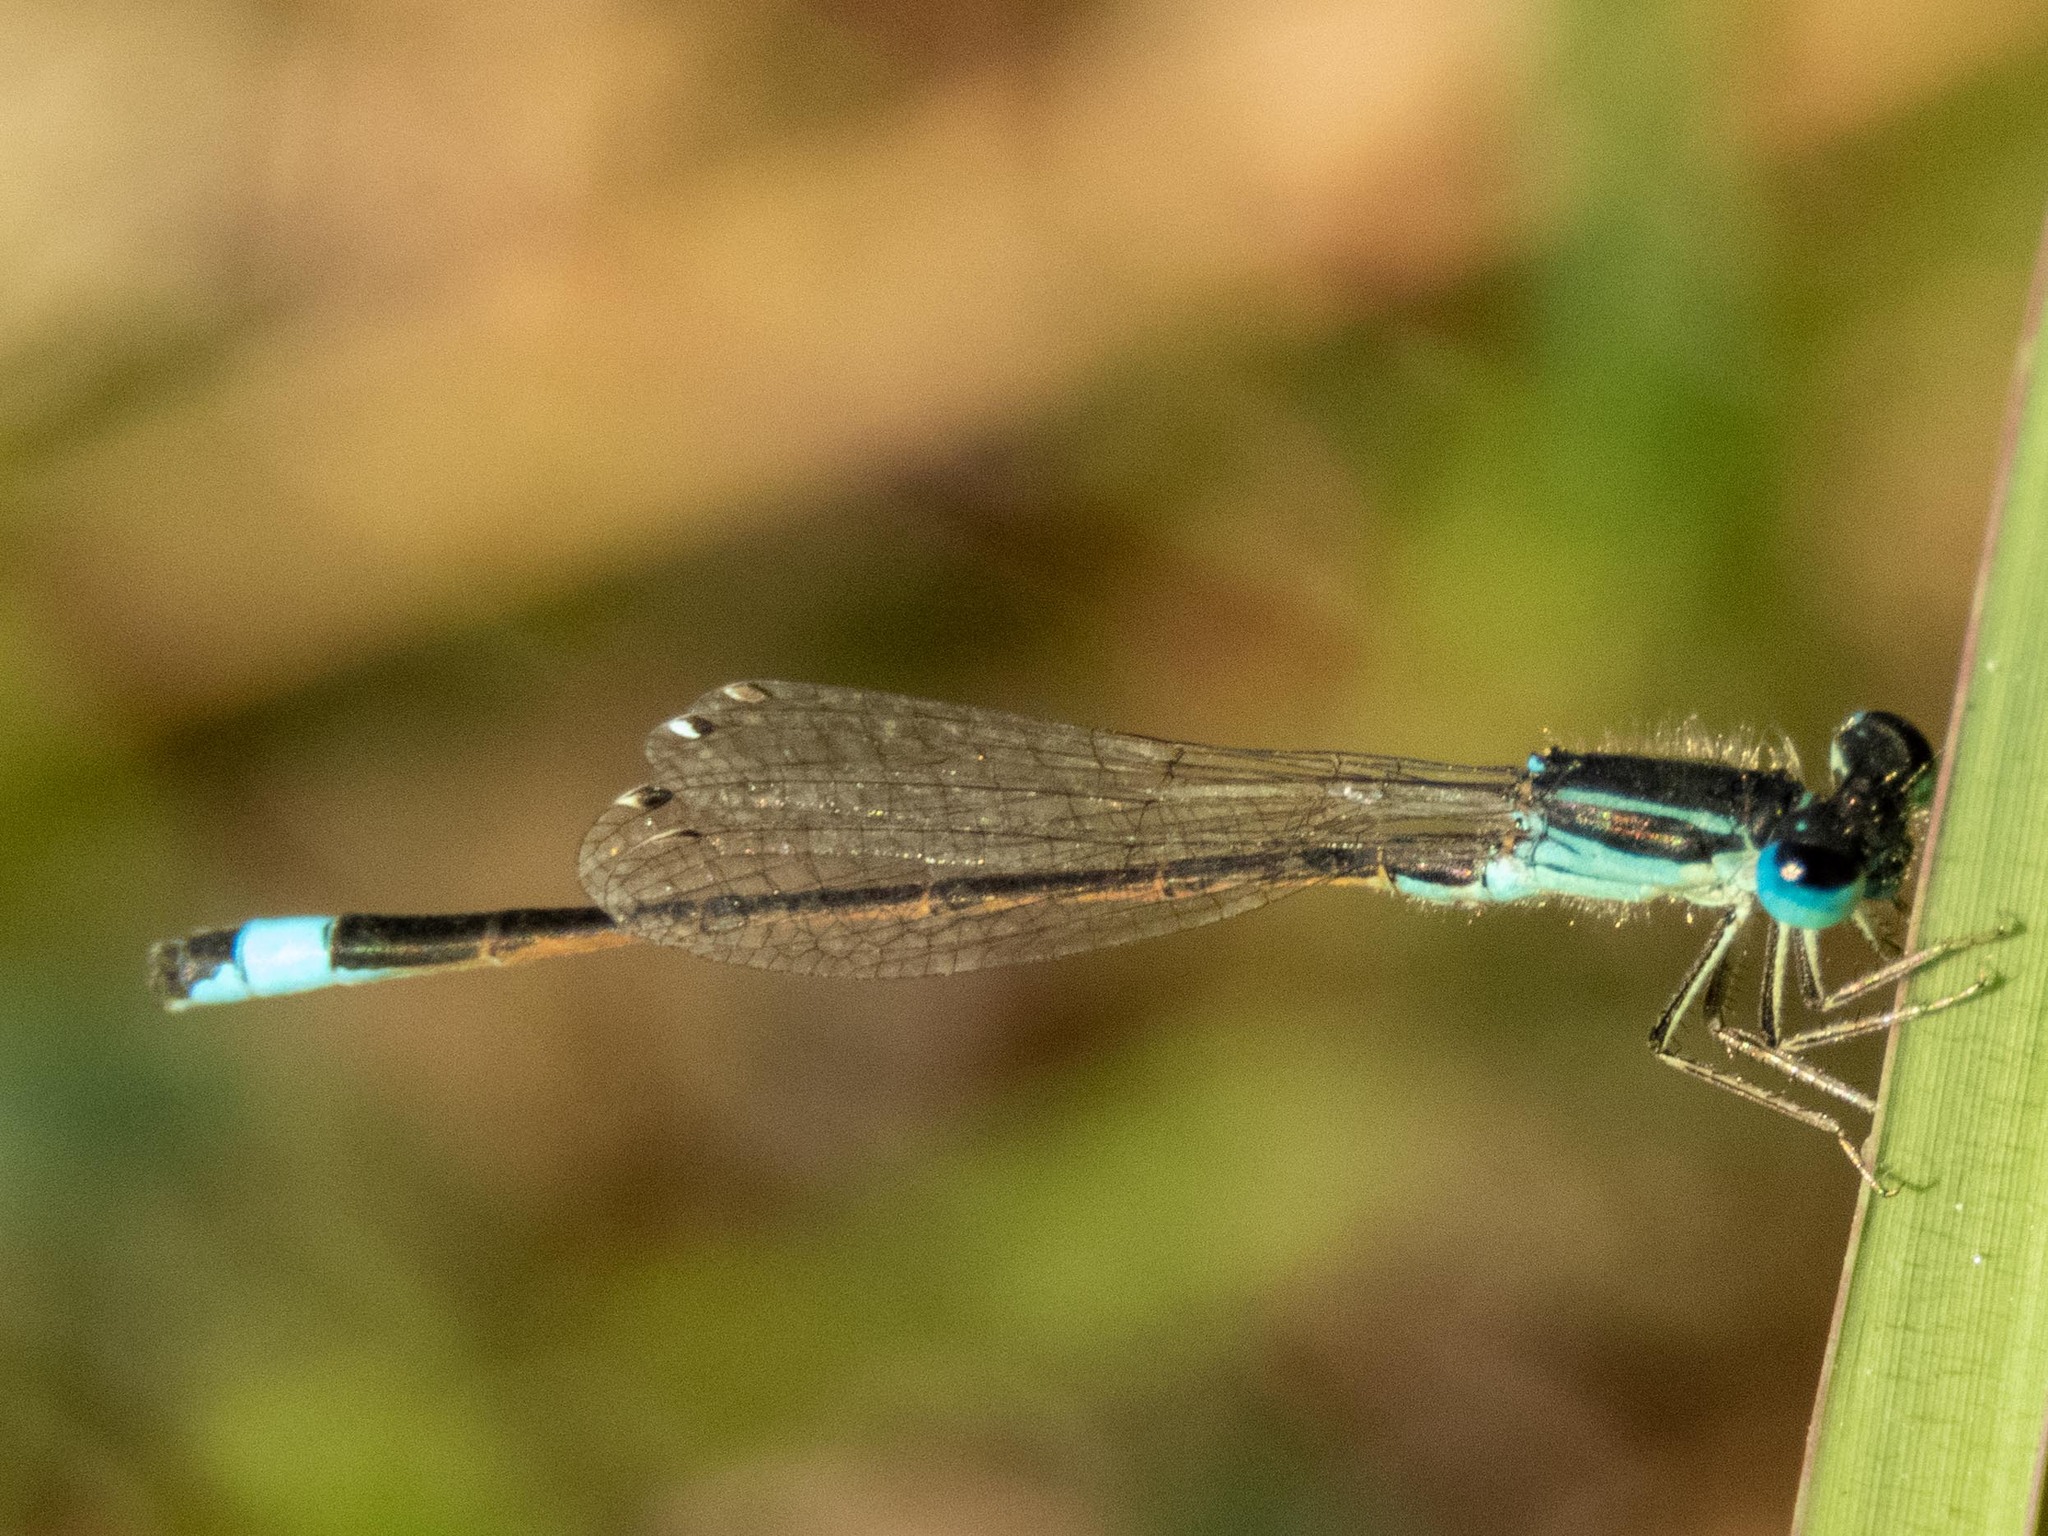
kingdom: Animalia
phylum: Arthropoda
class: Insecta
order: Odonata
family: Coenagrionidae
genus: Ischnura
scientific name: Ischnura graellsii
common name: Iberian bluetail
